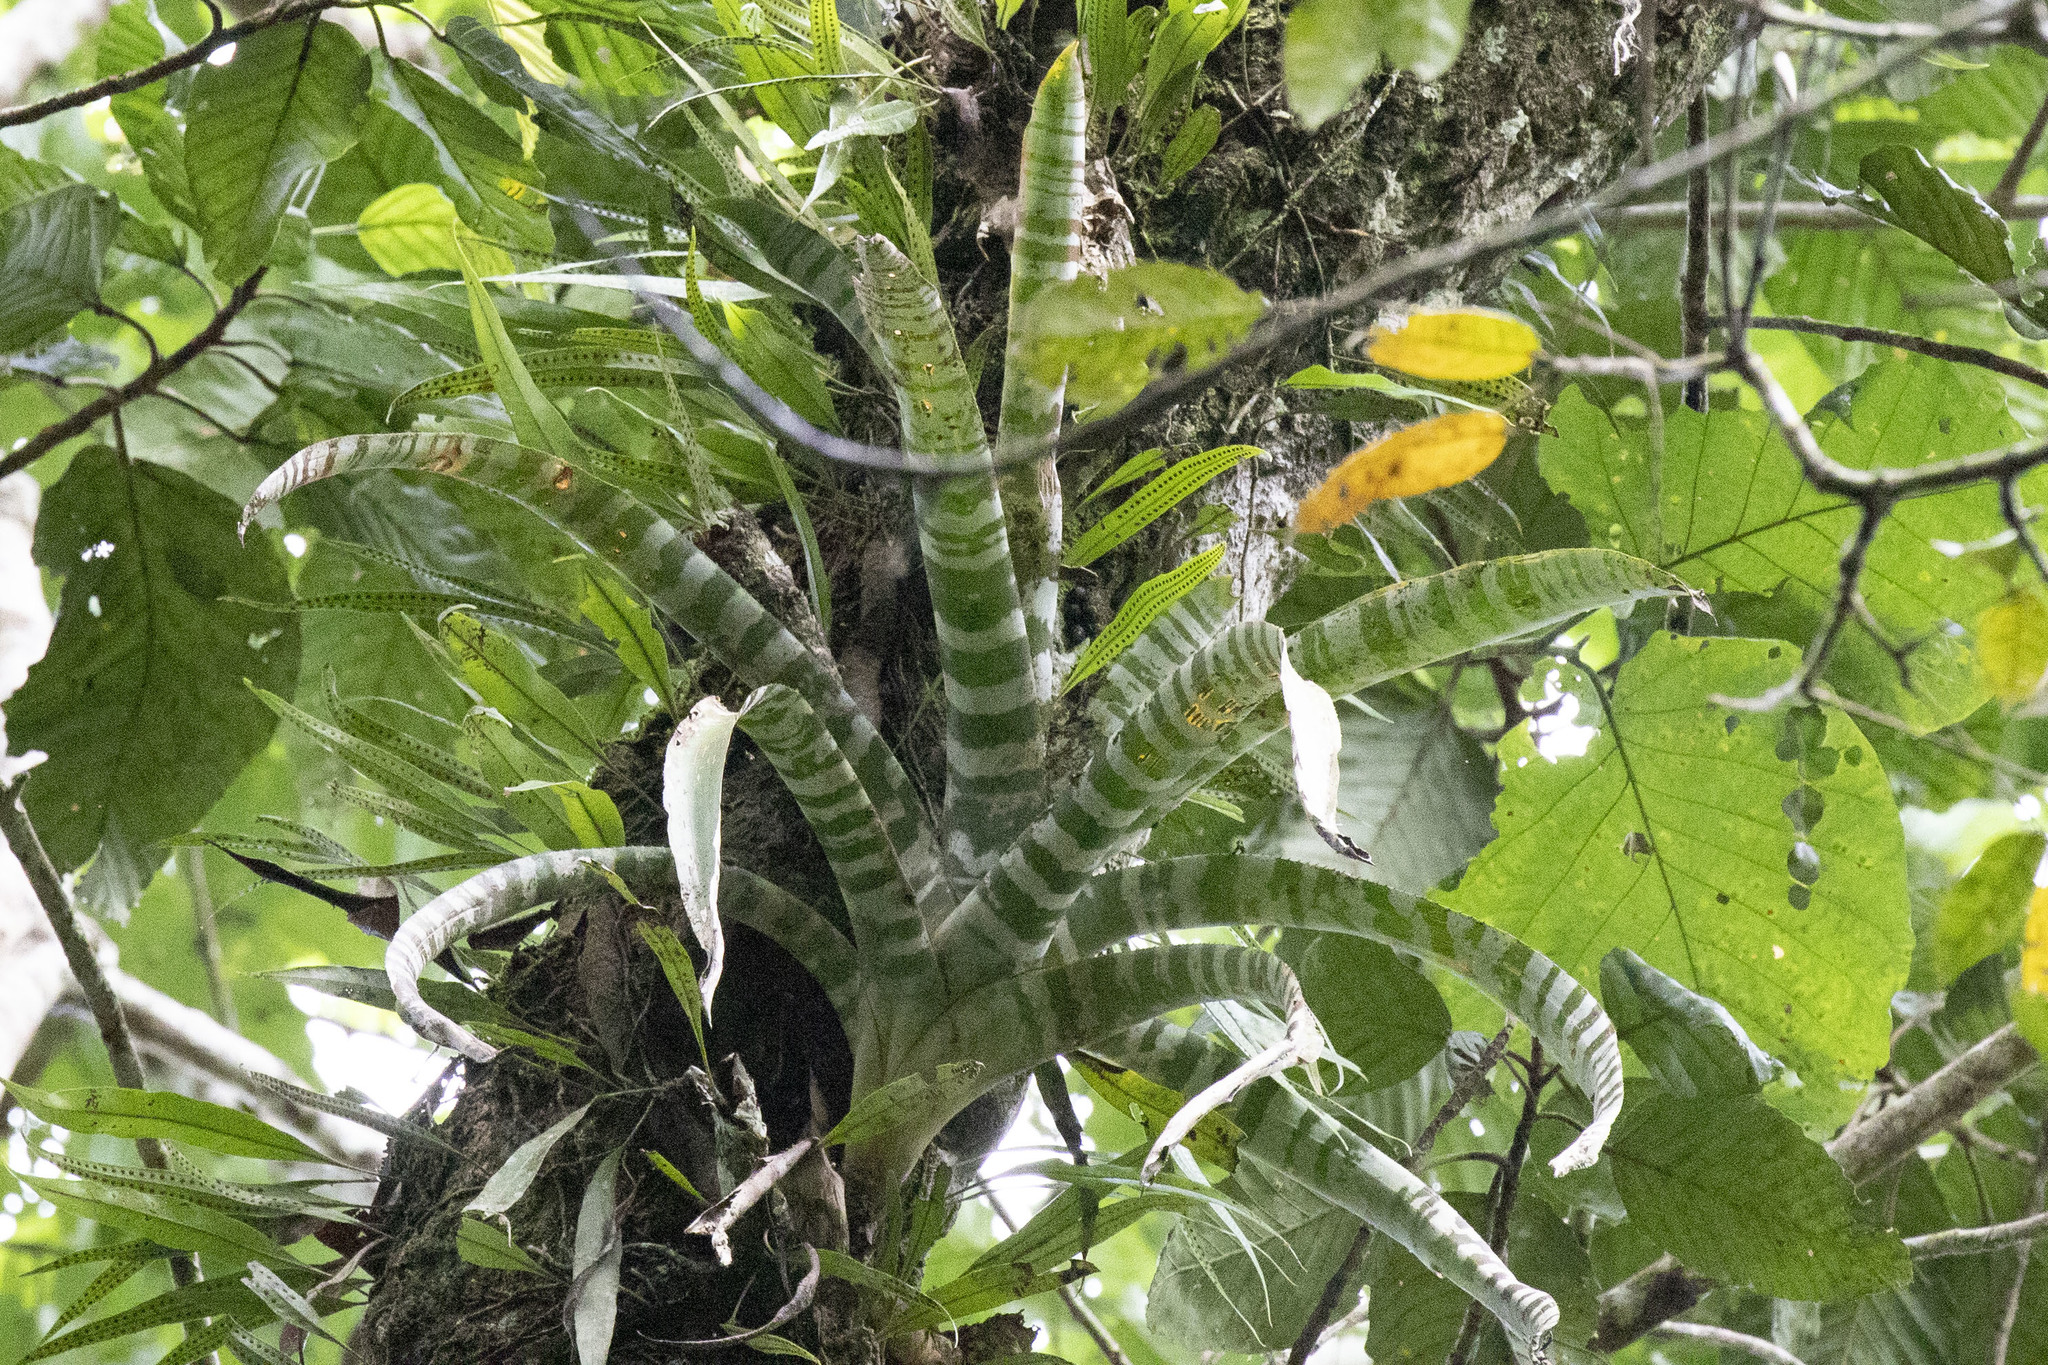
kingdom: Plantae
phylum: Tracheophyta
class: Liliopsida
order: Poales
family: Bromeliaceae
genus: Aechmea
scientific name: Aechmea zebrina
